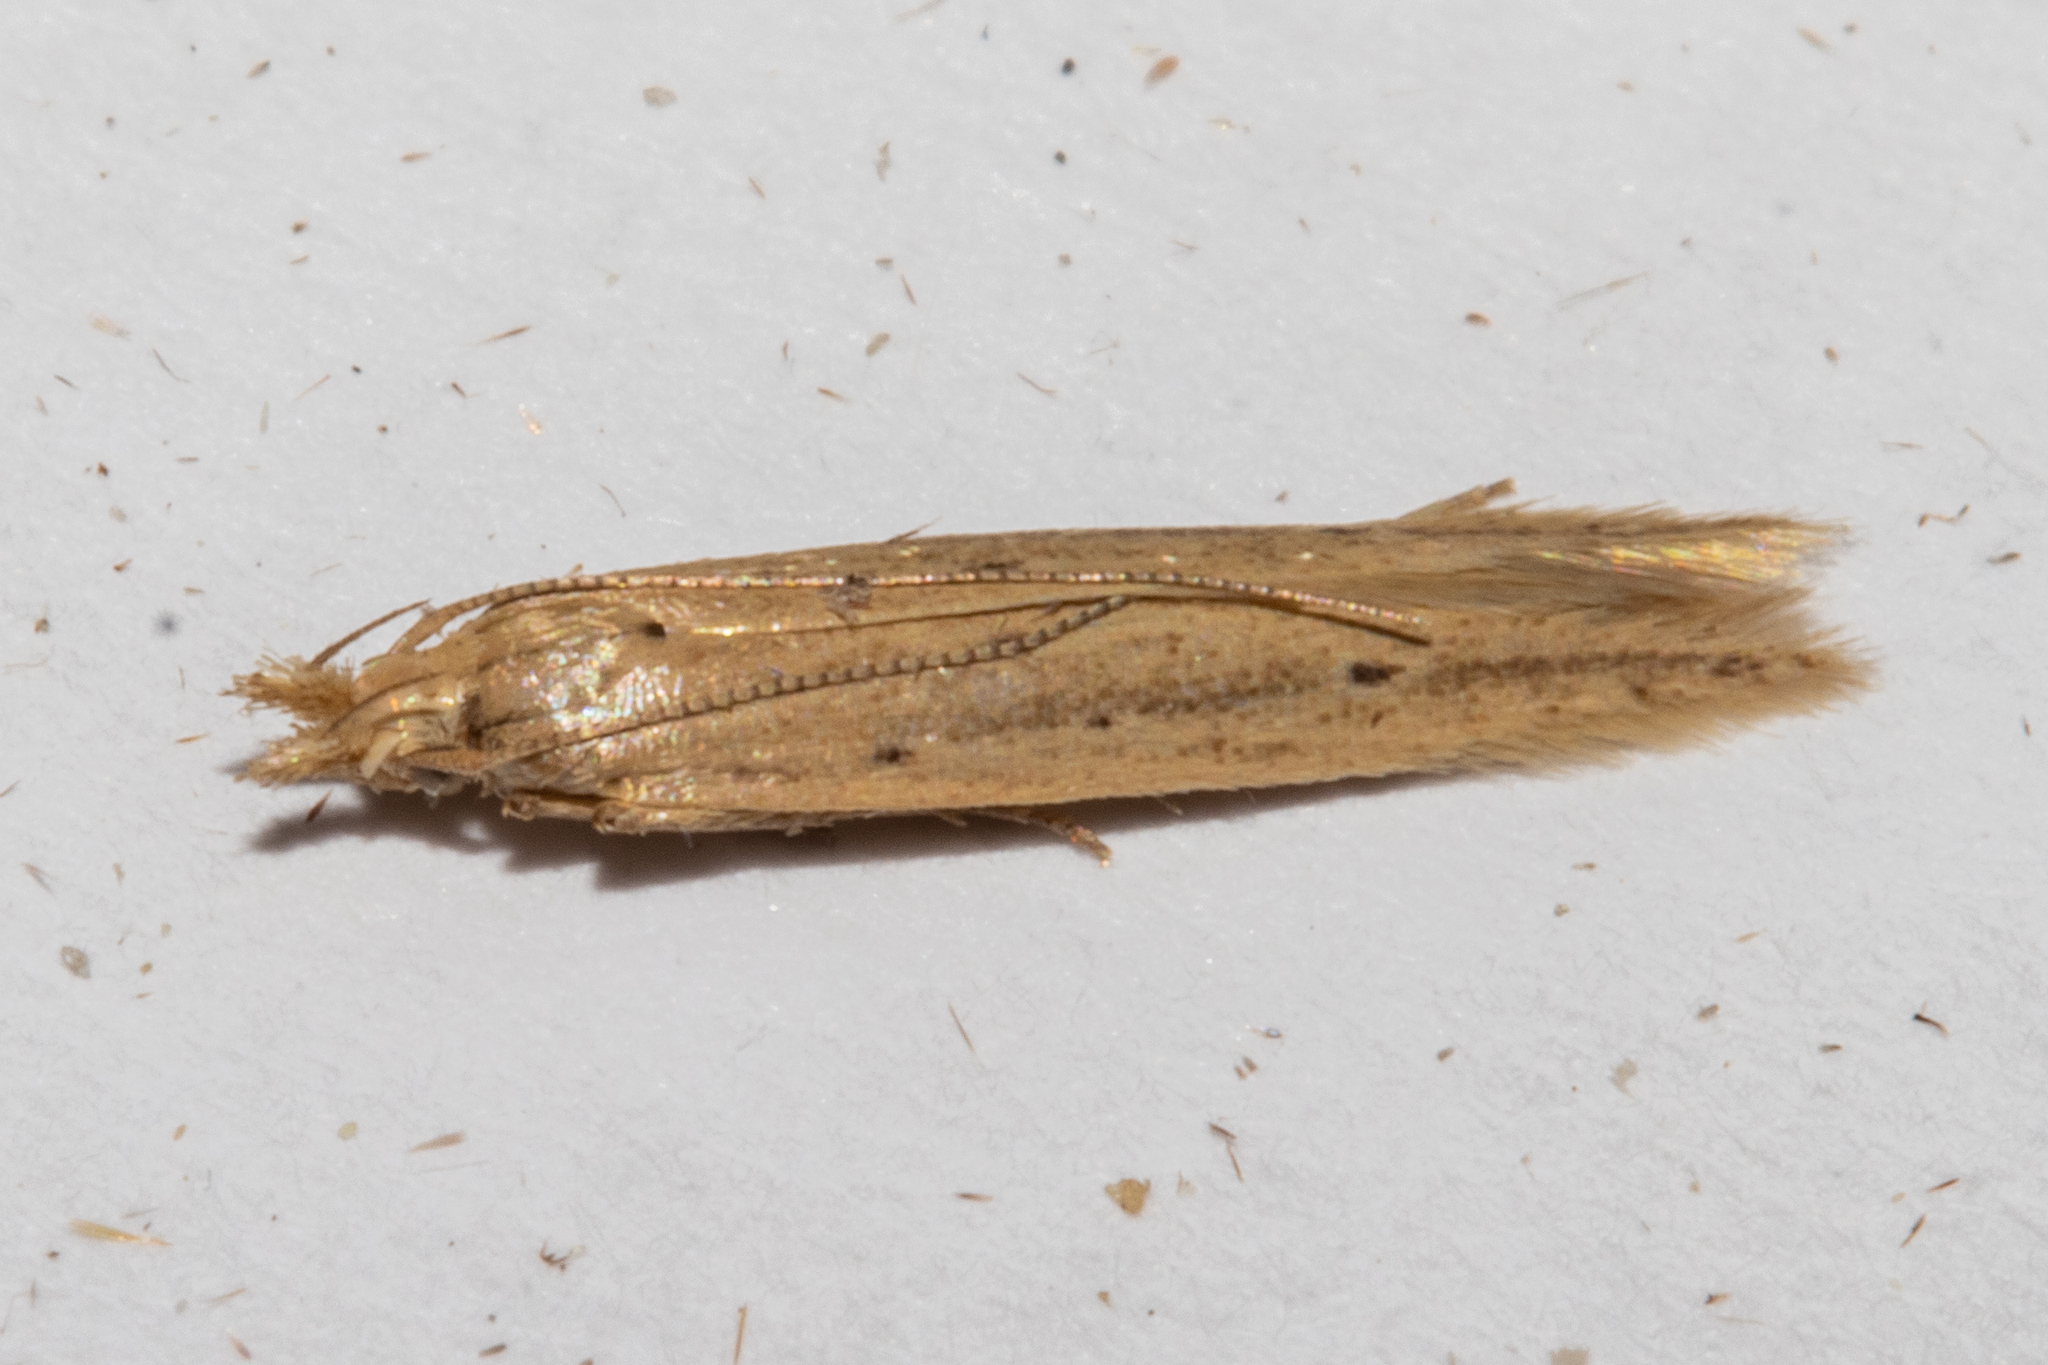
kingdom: Animalia
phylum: Arthropoda
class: Insecta
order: Lepidoptera
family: Gelechiidae
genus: Epiphthora
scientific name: Epiphthora calamogonus
